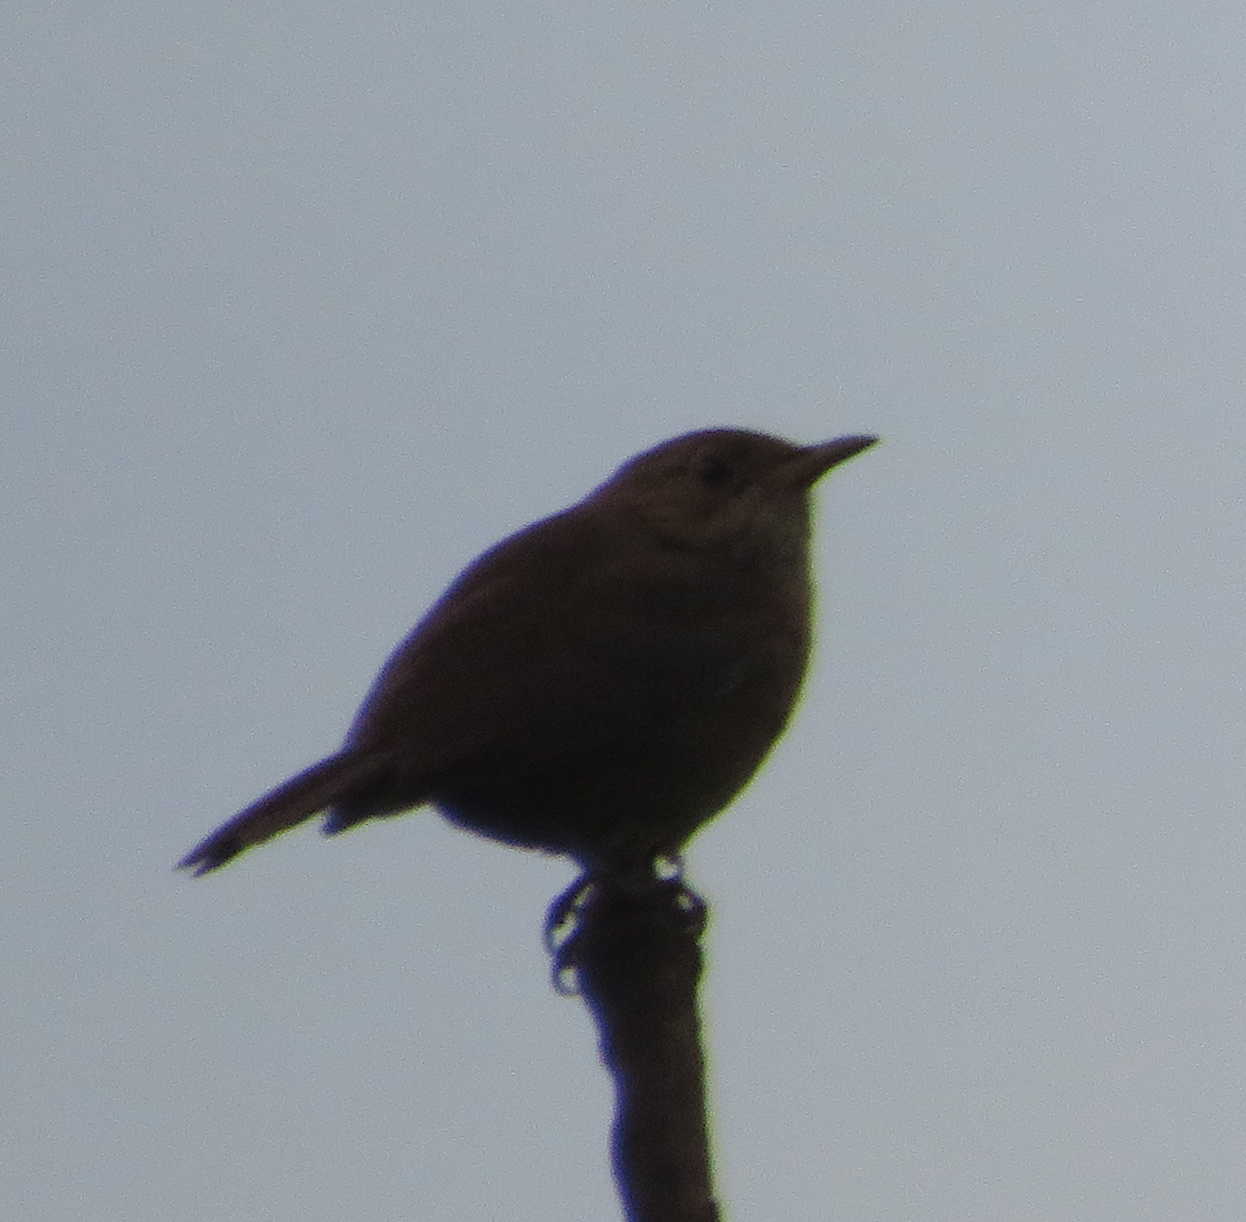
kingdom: Animalia
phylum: Chordata
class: Aves
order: Passeriformes
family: Troglodytidae
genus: Troglodytes
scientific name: Troglodytes aedon
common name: House wren
